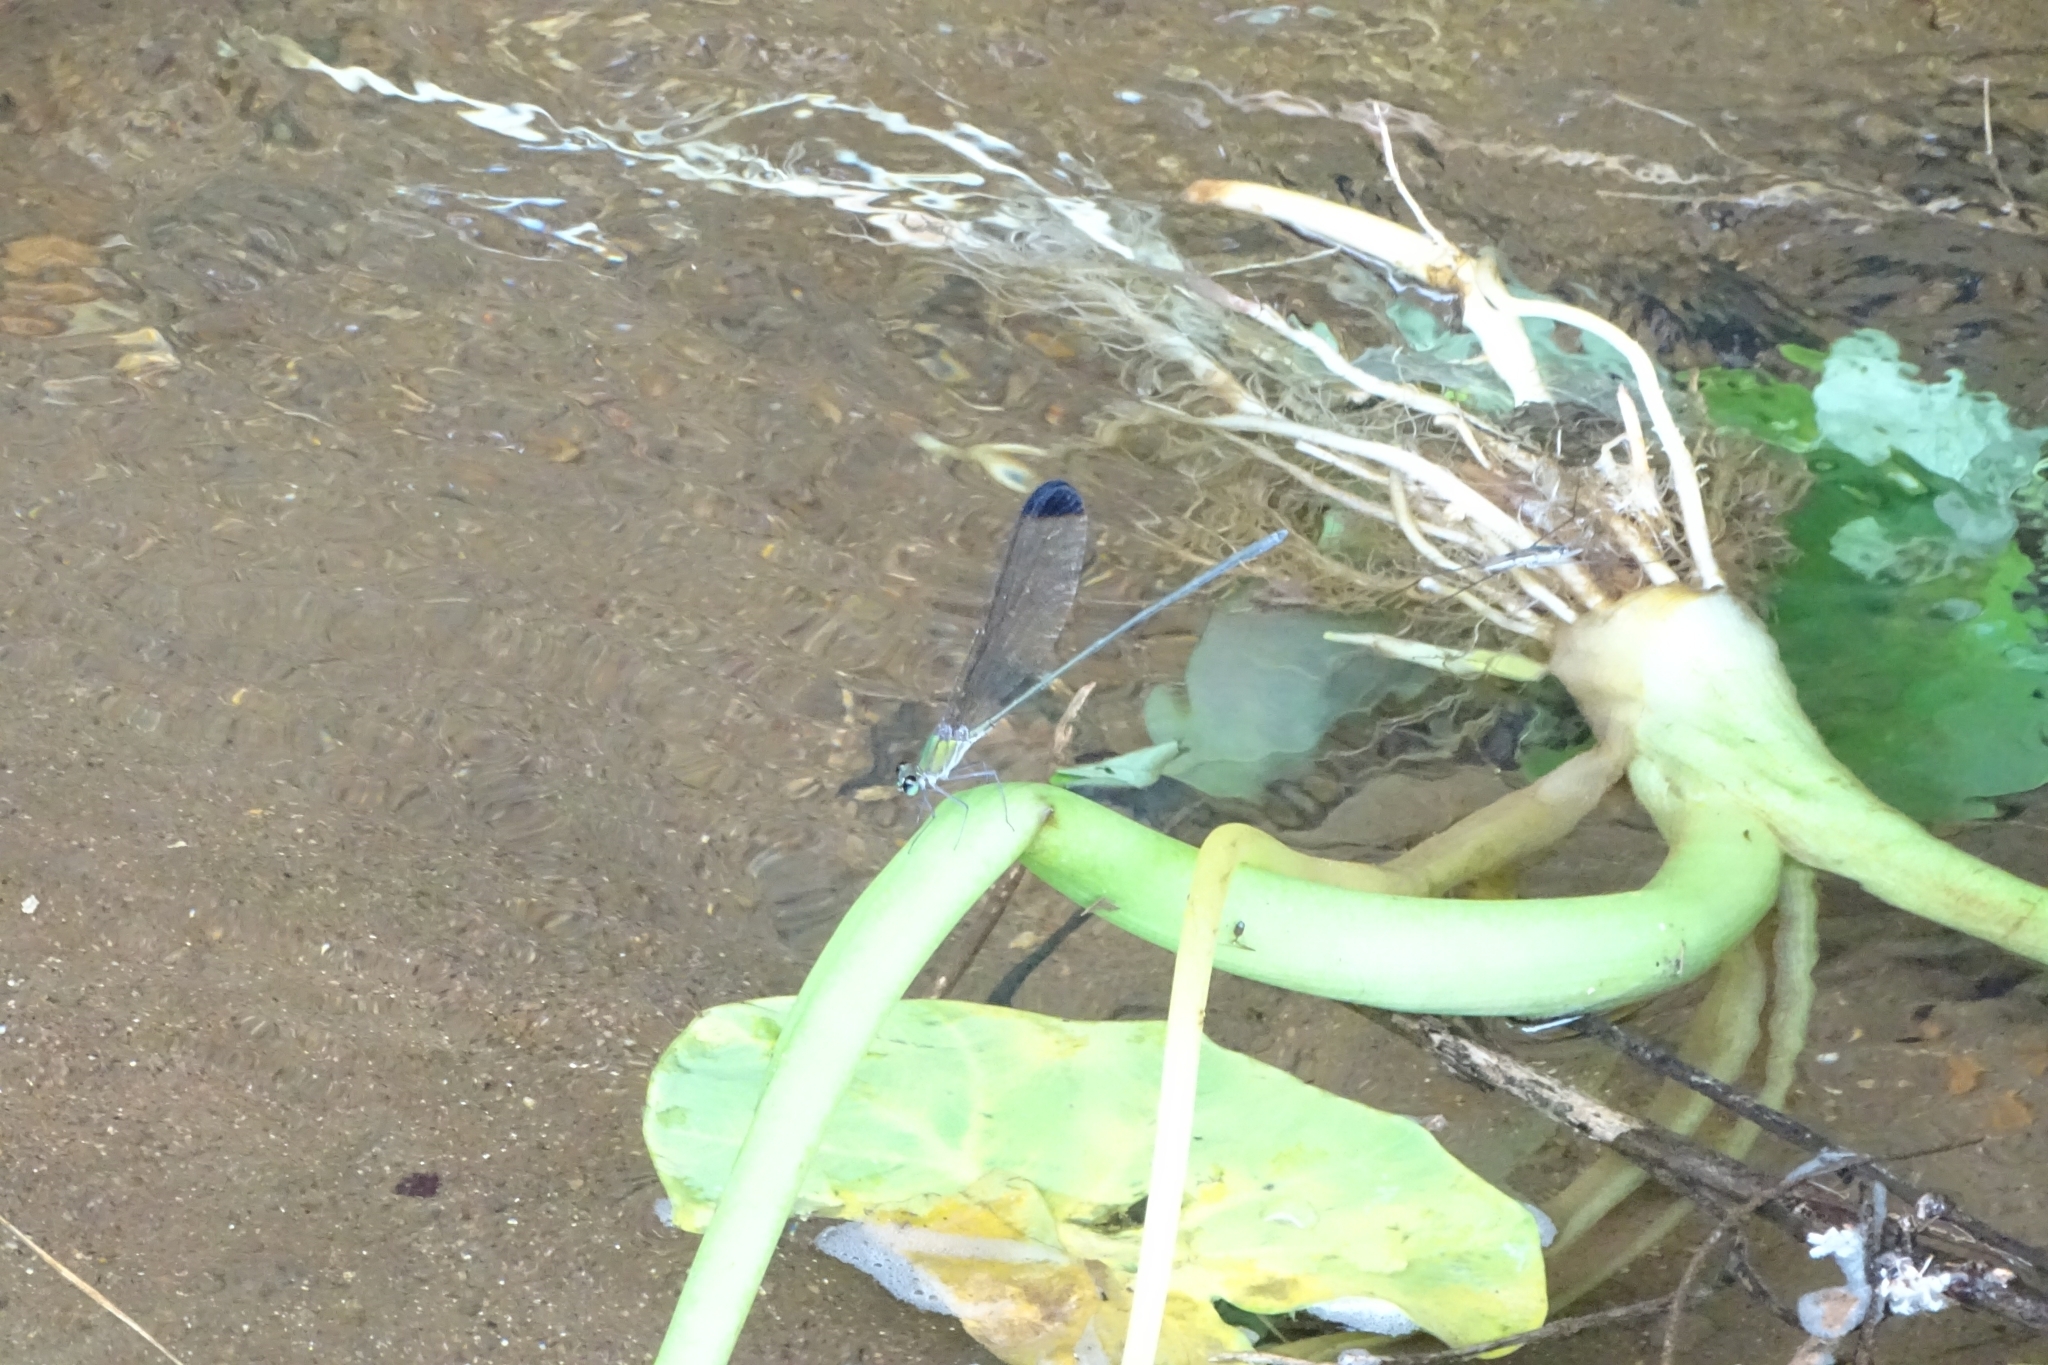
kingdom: Animalia
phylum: Arthropoda
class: Insecta
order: Odonata
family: Calopterygidae
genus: Vestalis
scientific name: Vestalis apicalis
